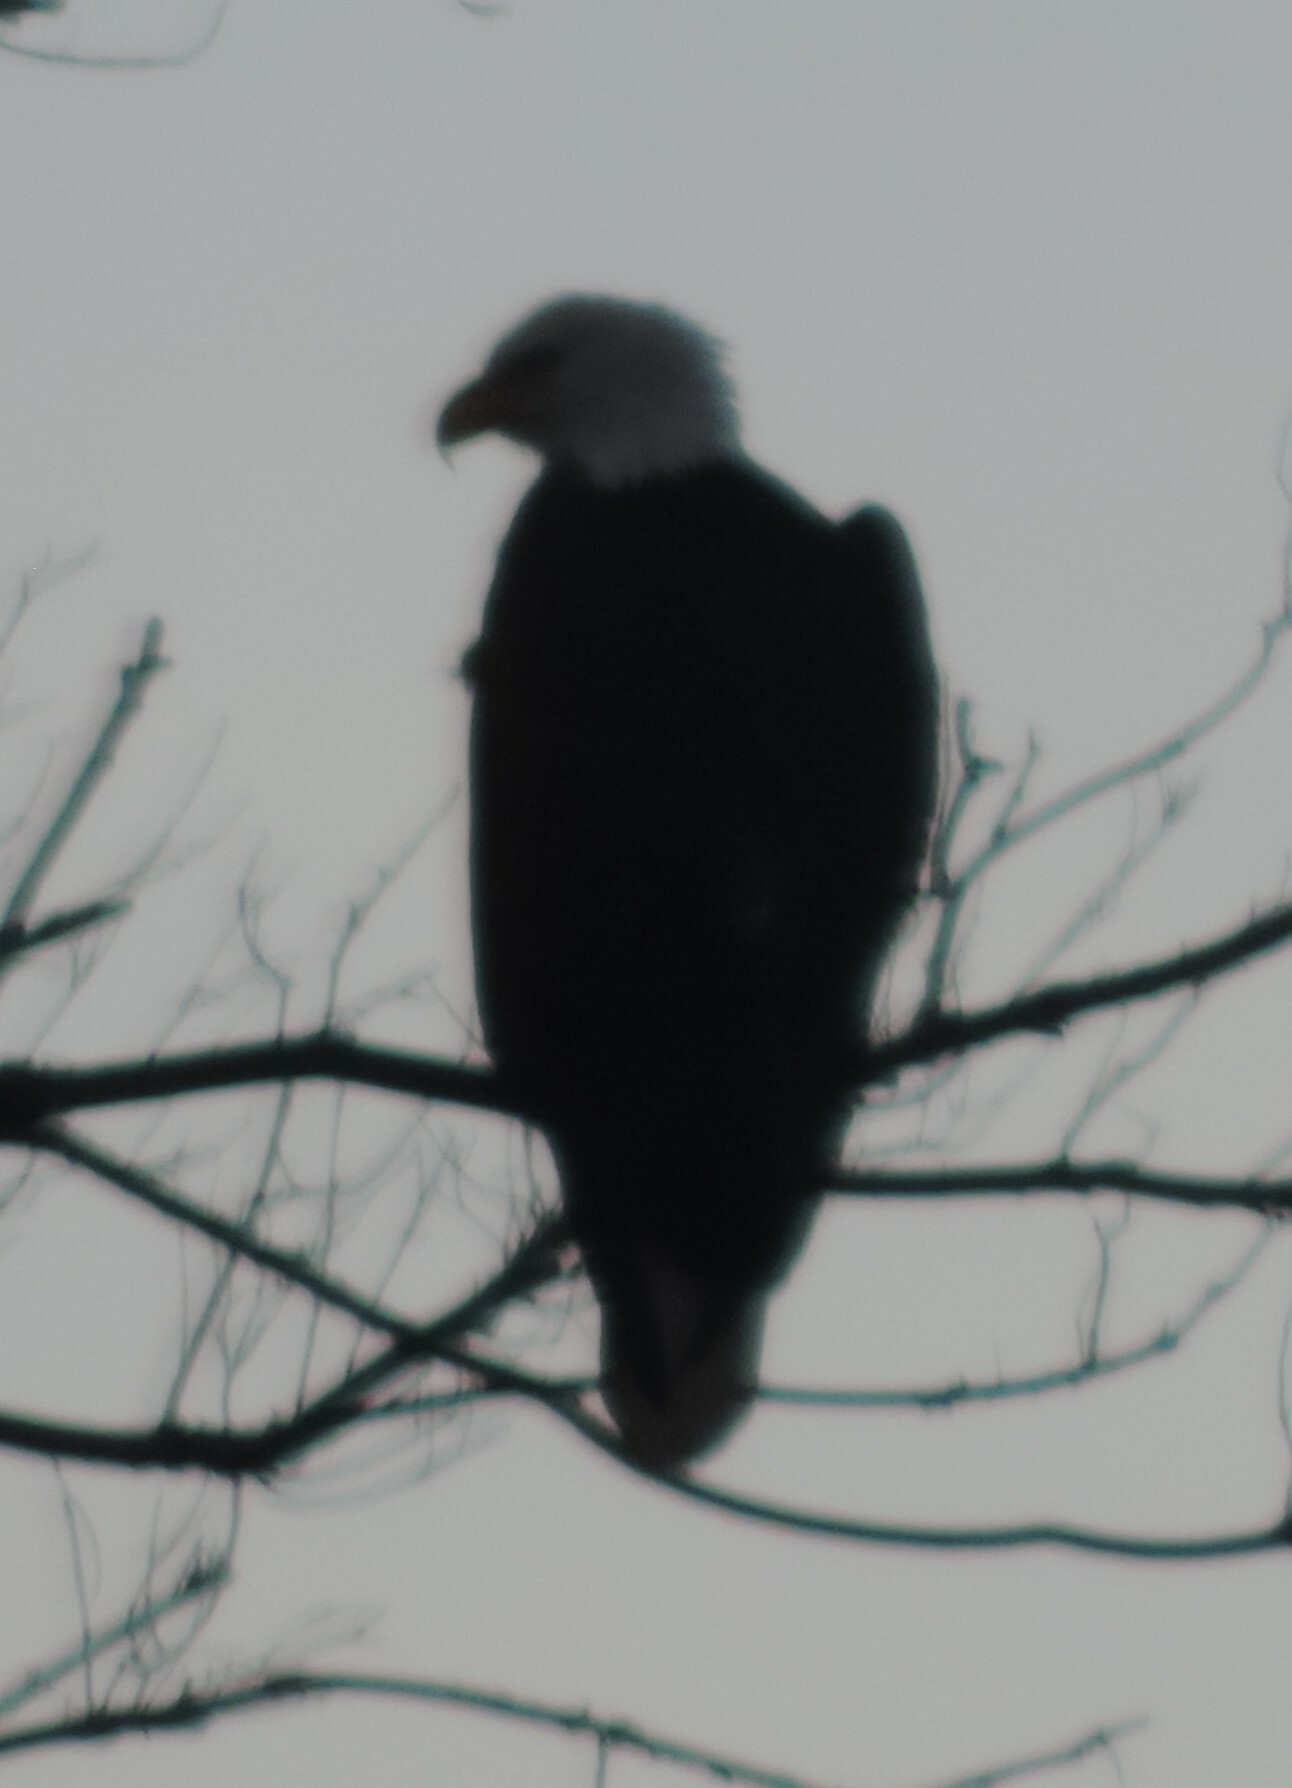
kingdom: Animalia
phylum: Chordata
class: Aves
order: Accipitriformes
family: Accipitridae
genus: Haliaeetus
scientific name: Haliaeetus leucocephalus
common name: Bald eagle
